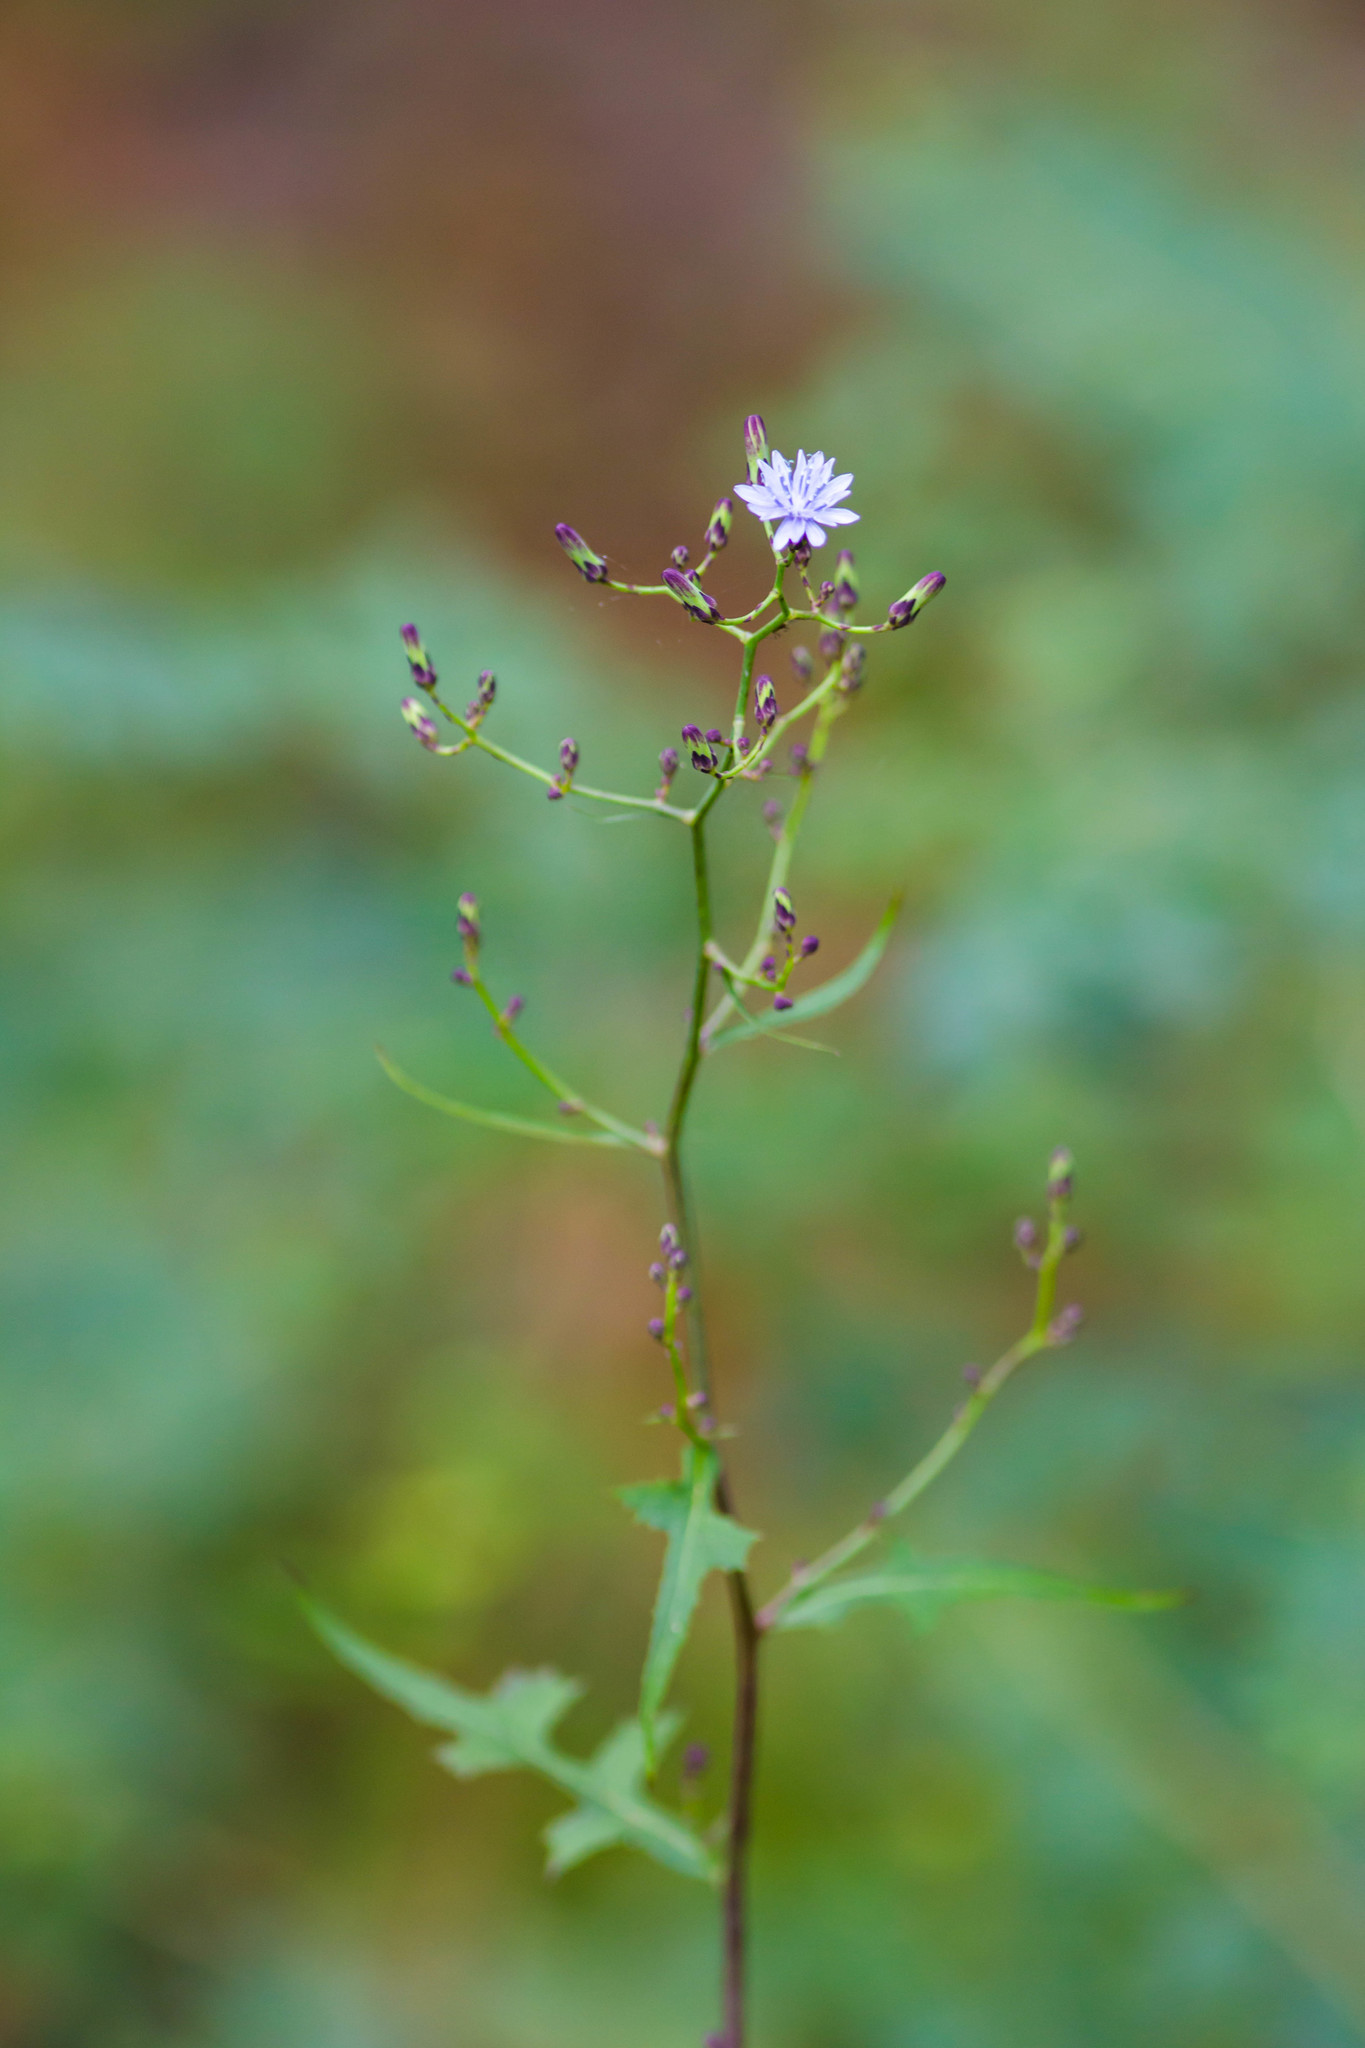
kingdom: Plantae
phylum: Tracheophyta
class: Magnoliopsida
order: Asterales
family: Asteraceae
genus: Lactuca
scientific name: Lactuca floridana
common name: Woodland lettuce
